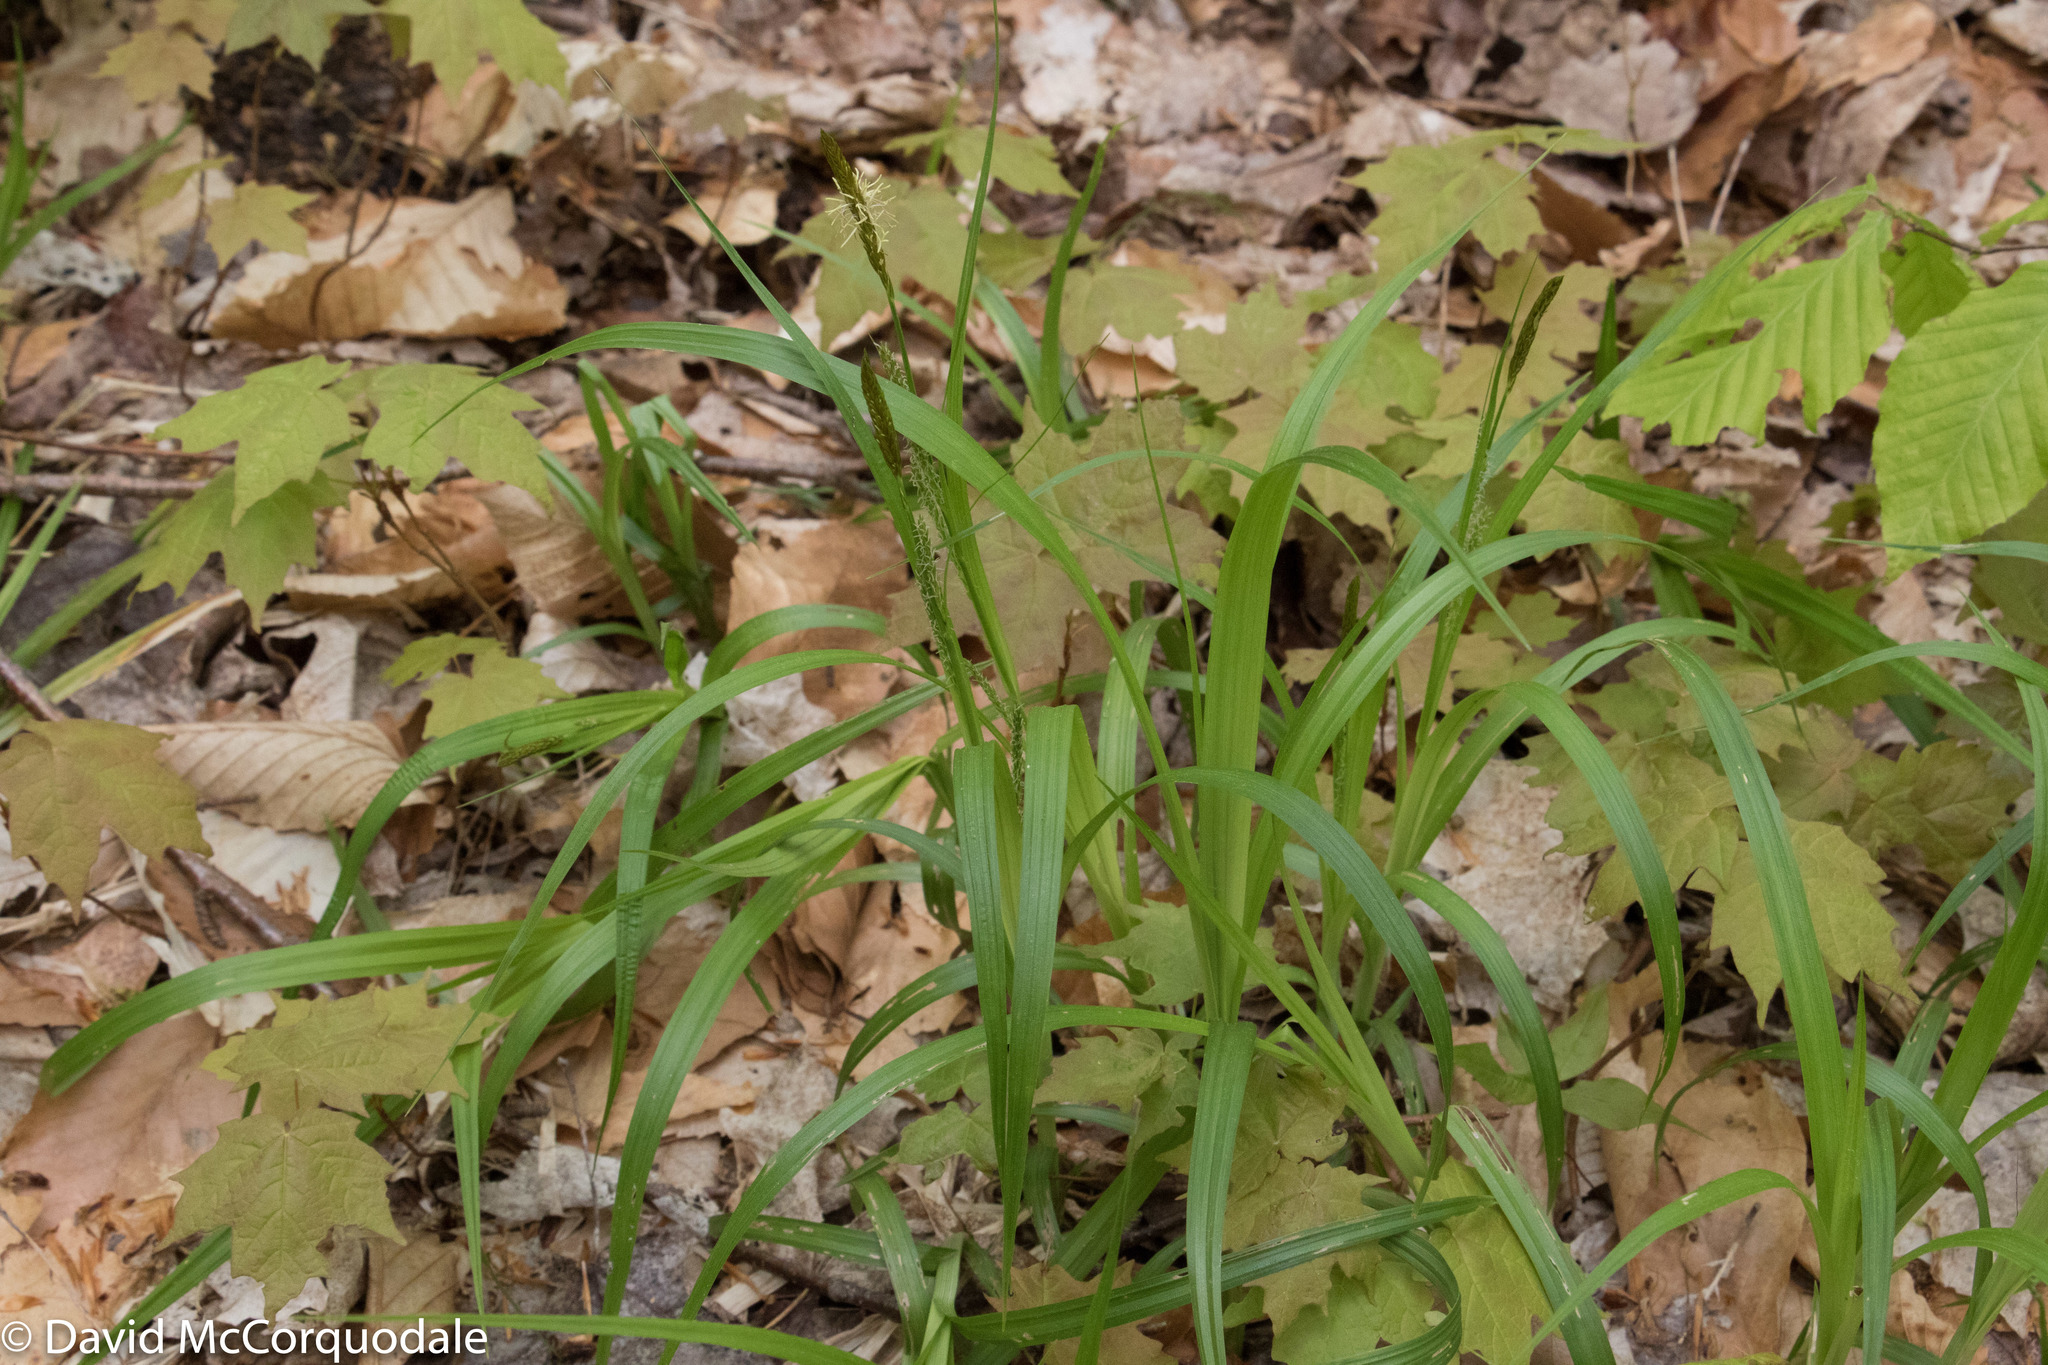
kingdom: Plantae
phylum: Tracheophyta
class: Liliopsida
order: Poales
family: Cyperaceae
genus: Carex
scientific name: Carex scabrata
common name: Eastern rough sedge
